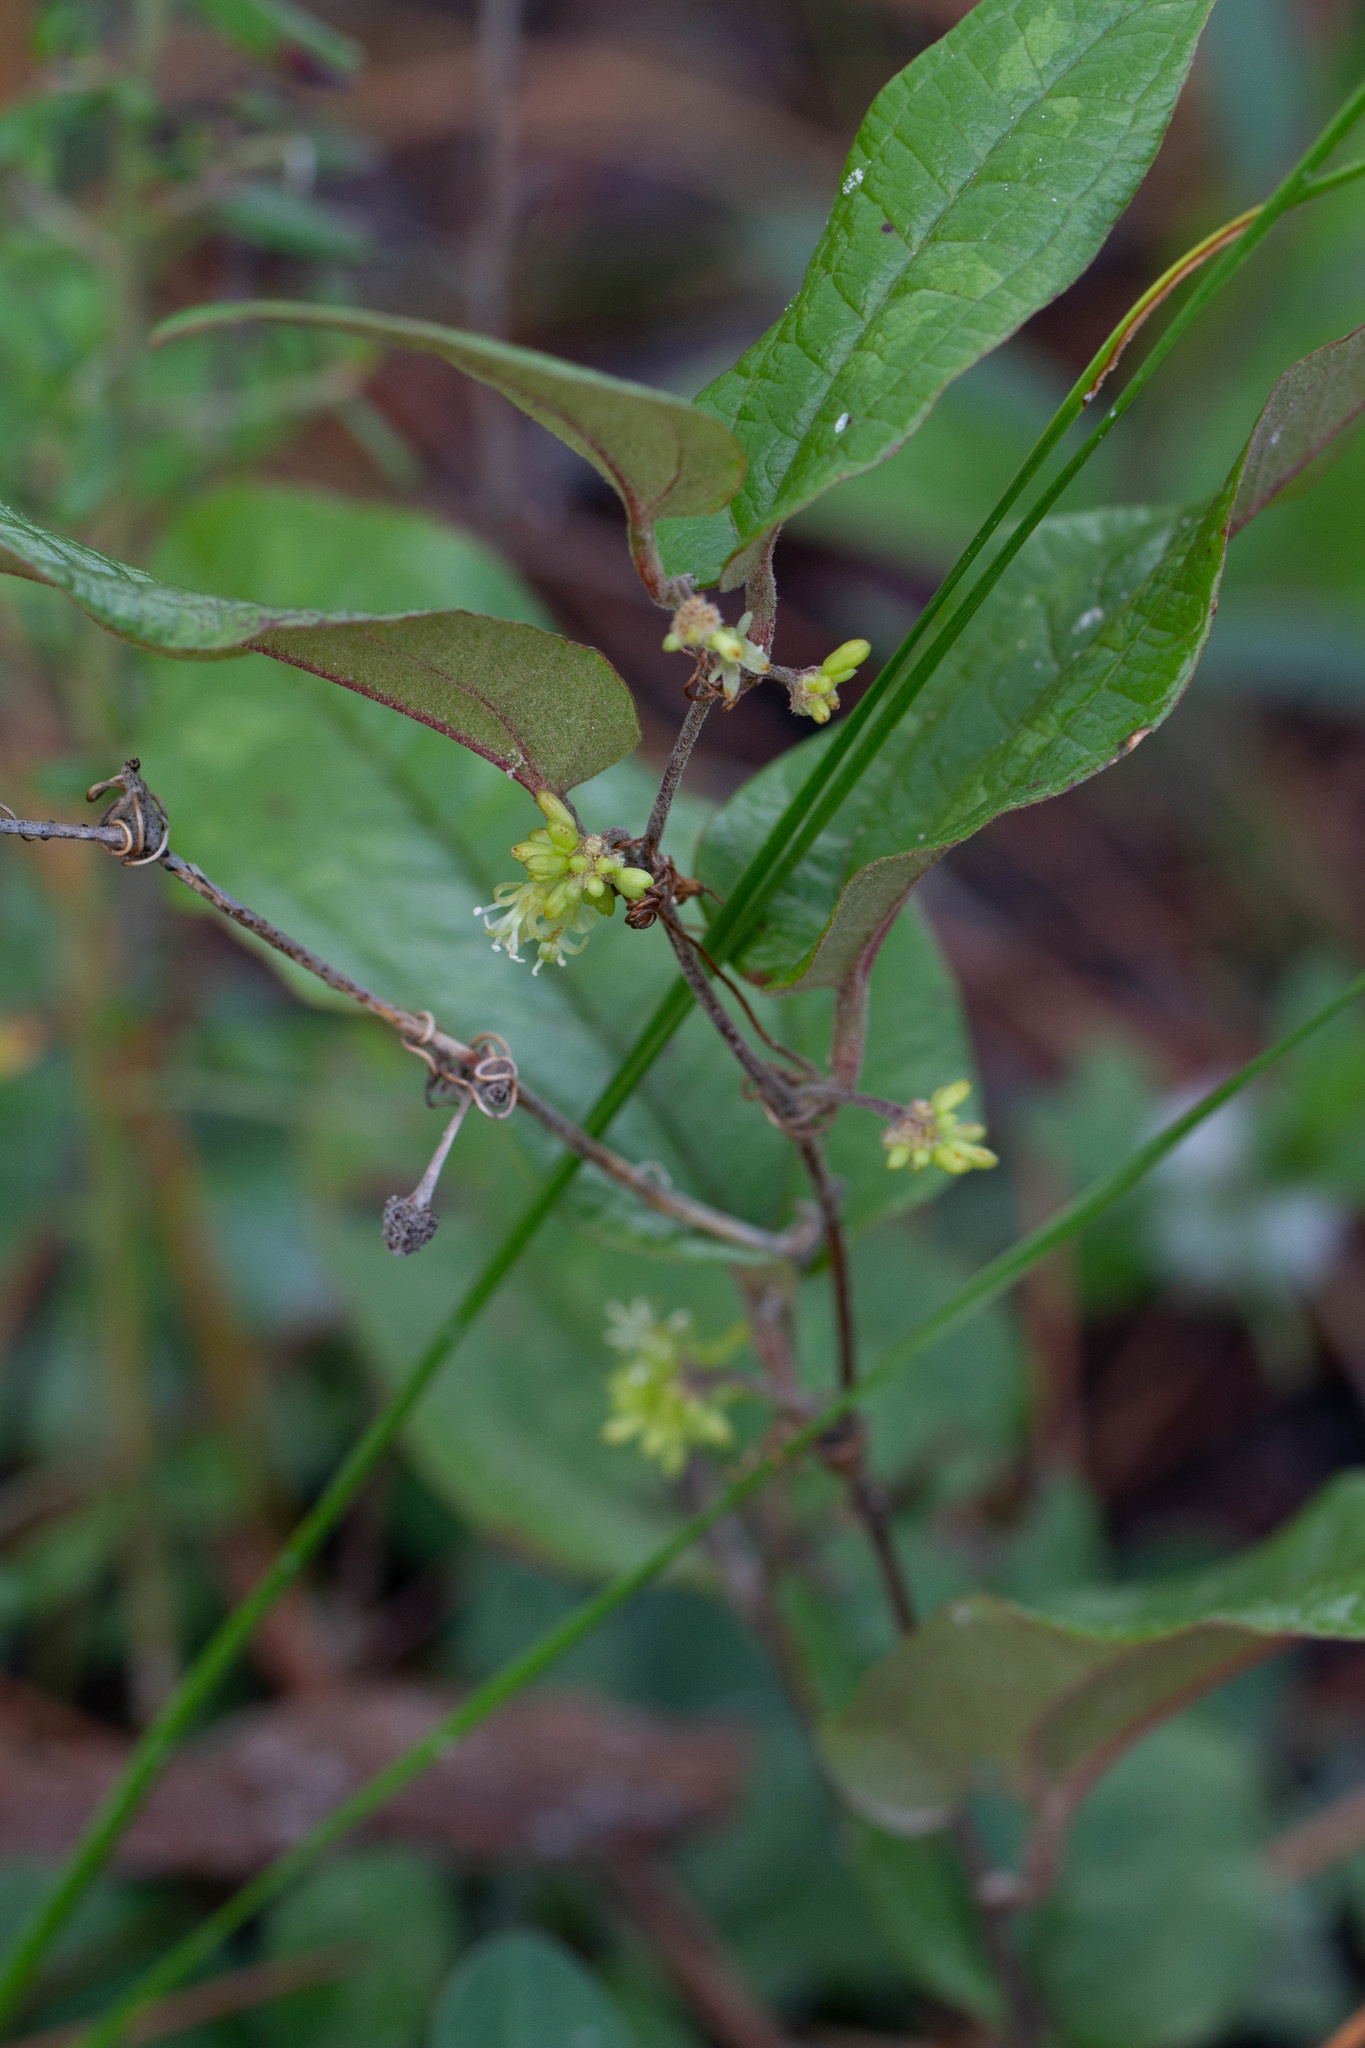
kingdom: Plantae
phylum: Tracheophyta
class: Liliopsida
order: Liliales
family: Smilacaceae
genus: Smilax
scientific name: Smilax pumila
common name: Sarsaparilla-vine
